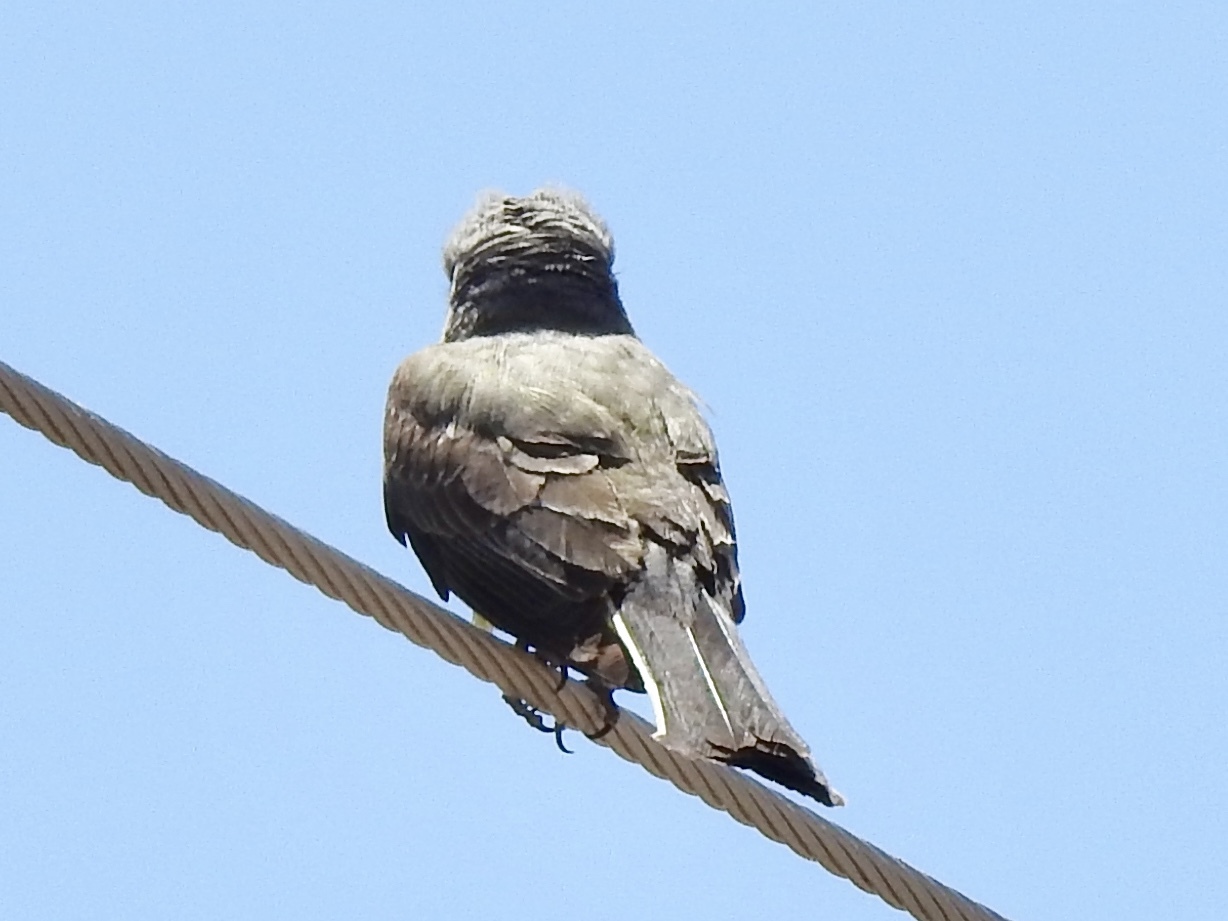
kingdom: Animalia
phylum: Chordata
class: Aves
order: Passeriformes
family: Tyrannidae
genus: Tyrannus
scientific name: Tyrannus verticalis
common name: Western kingbird
